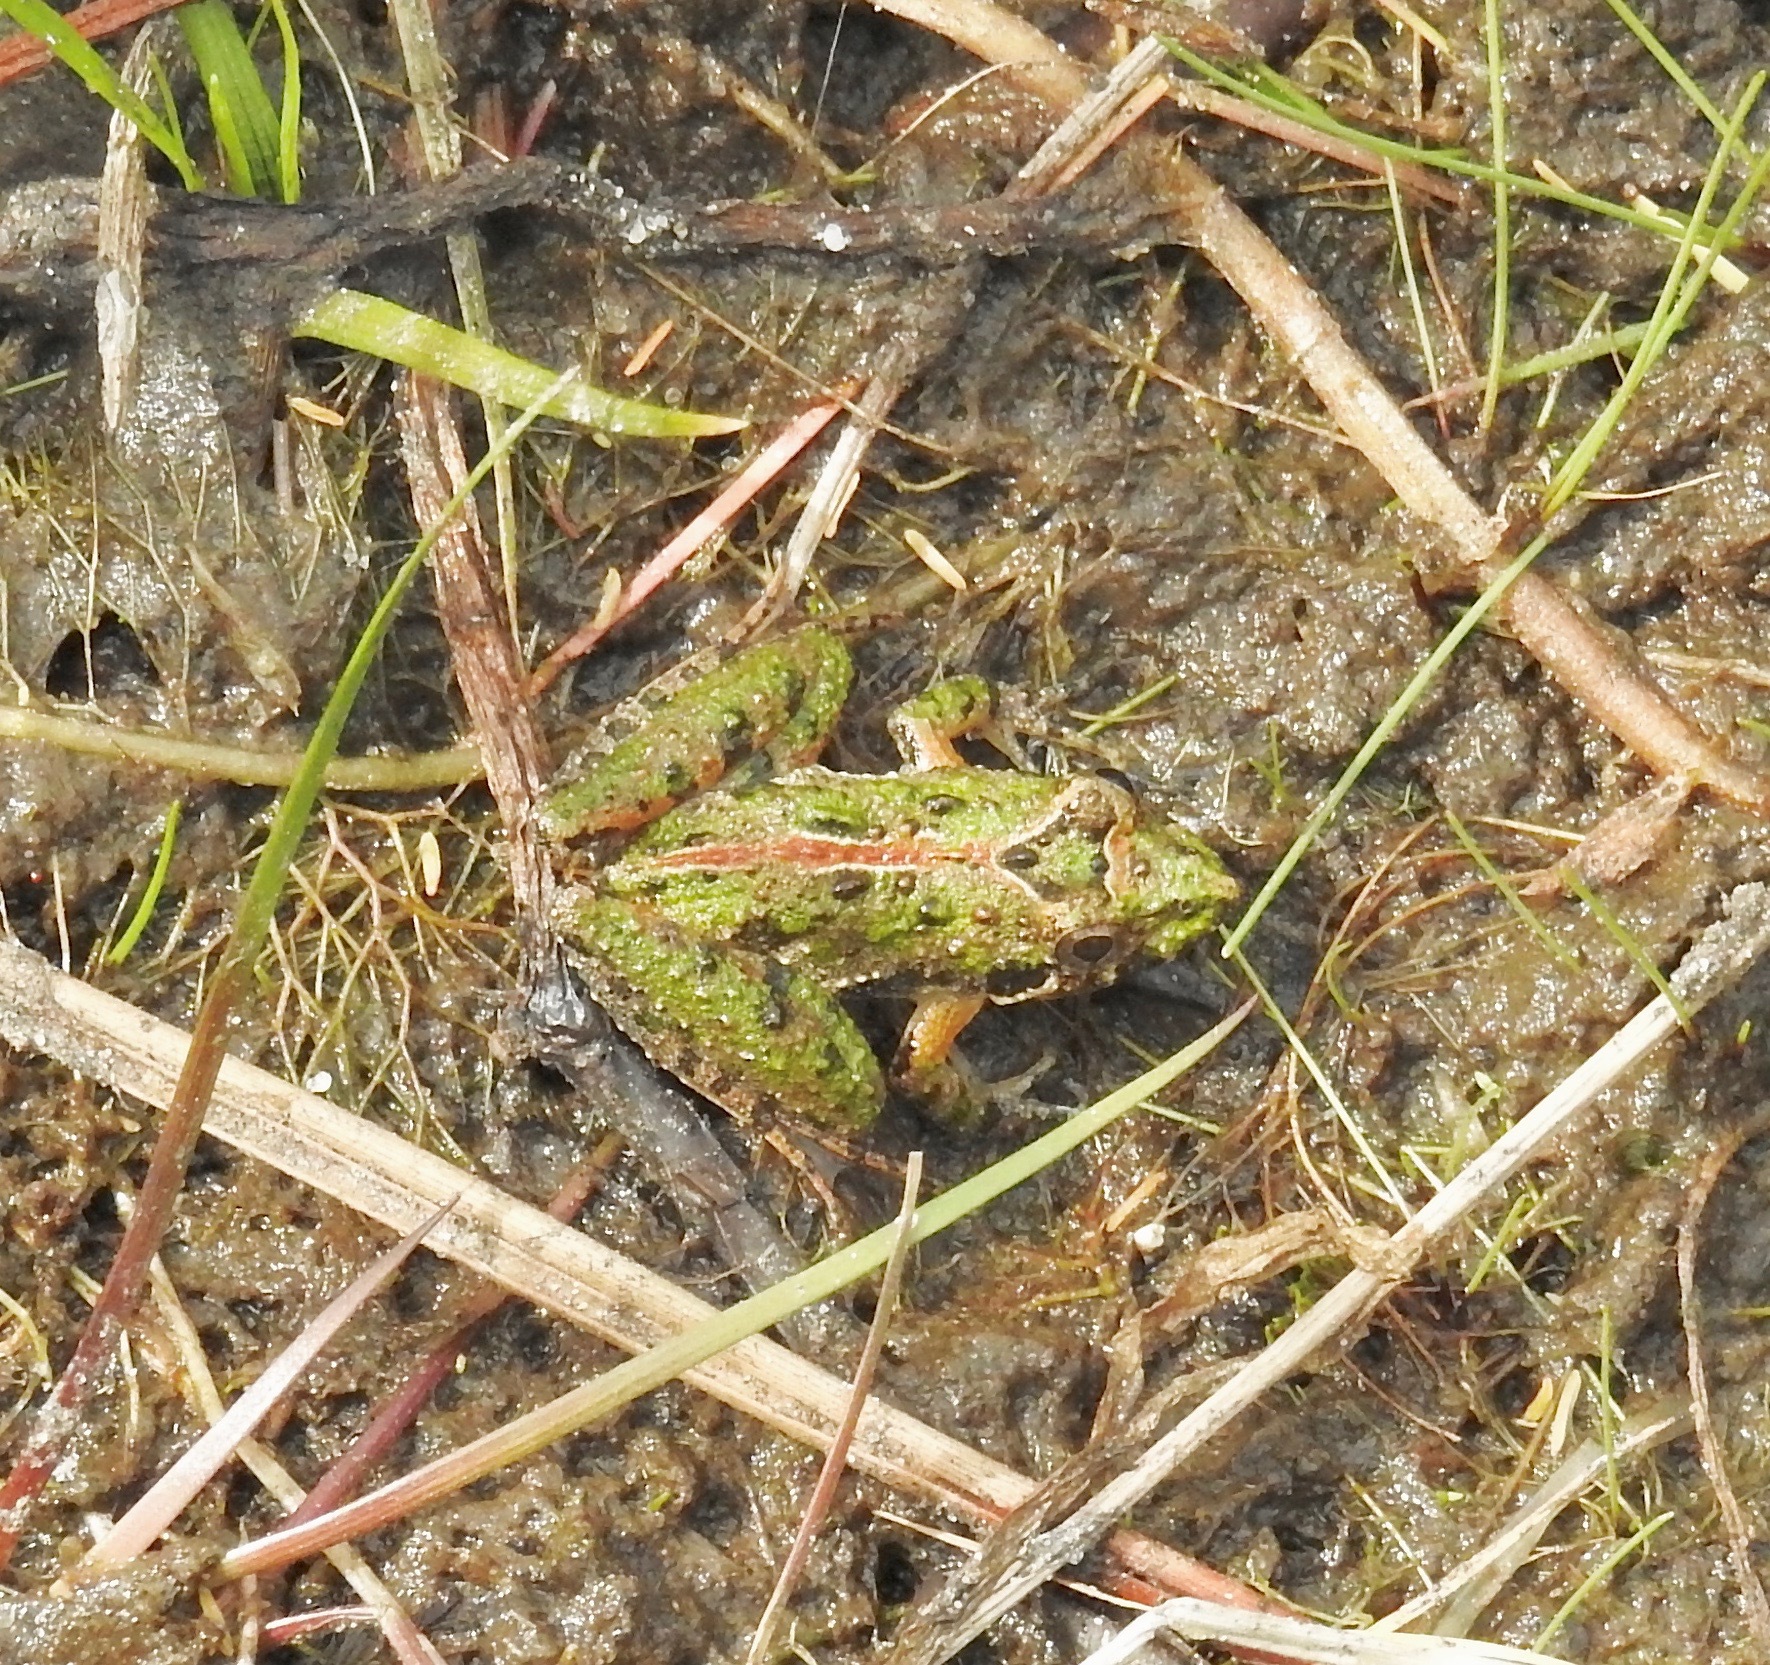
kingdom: Animalia
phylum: Chordata
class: Amphibia
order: Anura
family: Hylidae
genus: Acris
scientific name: Acris gryllus
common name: Southern cricket frog
